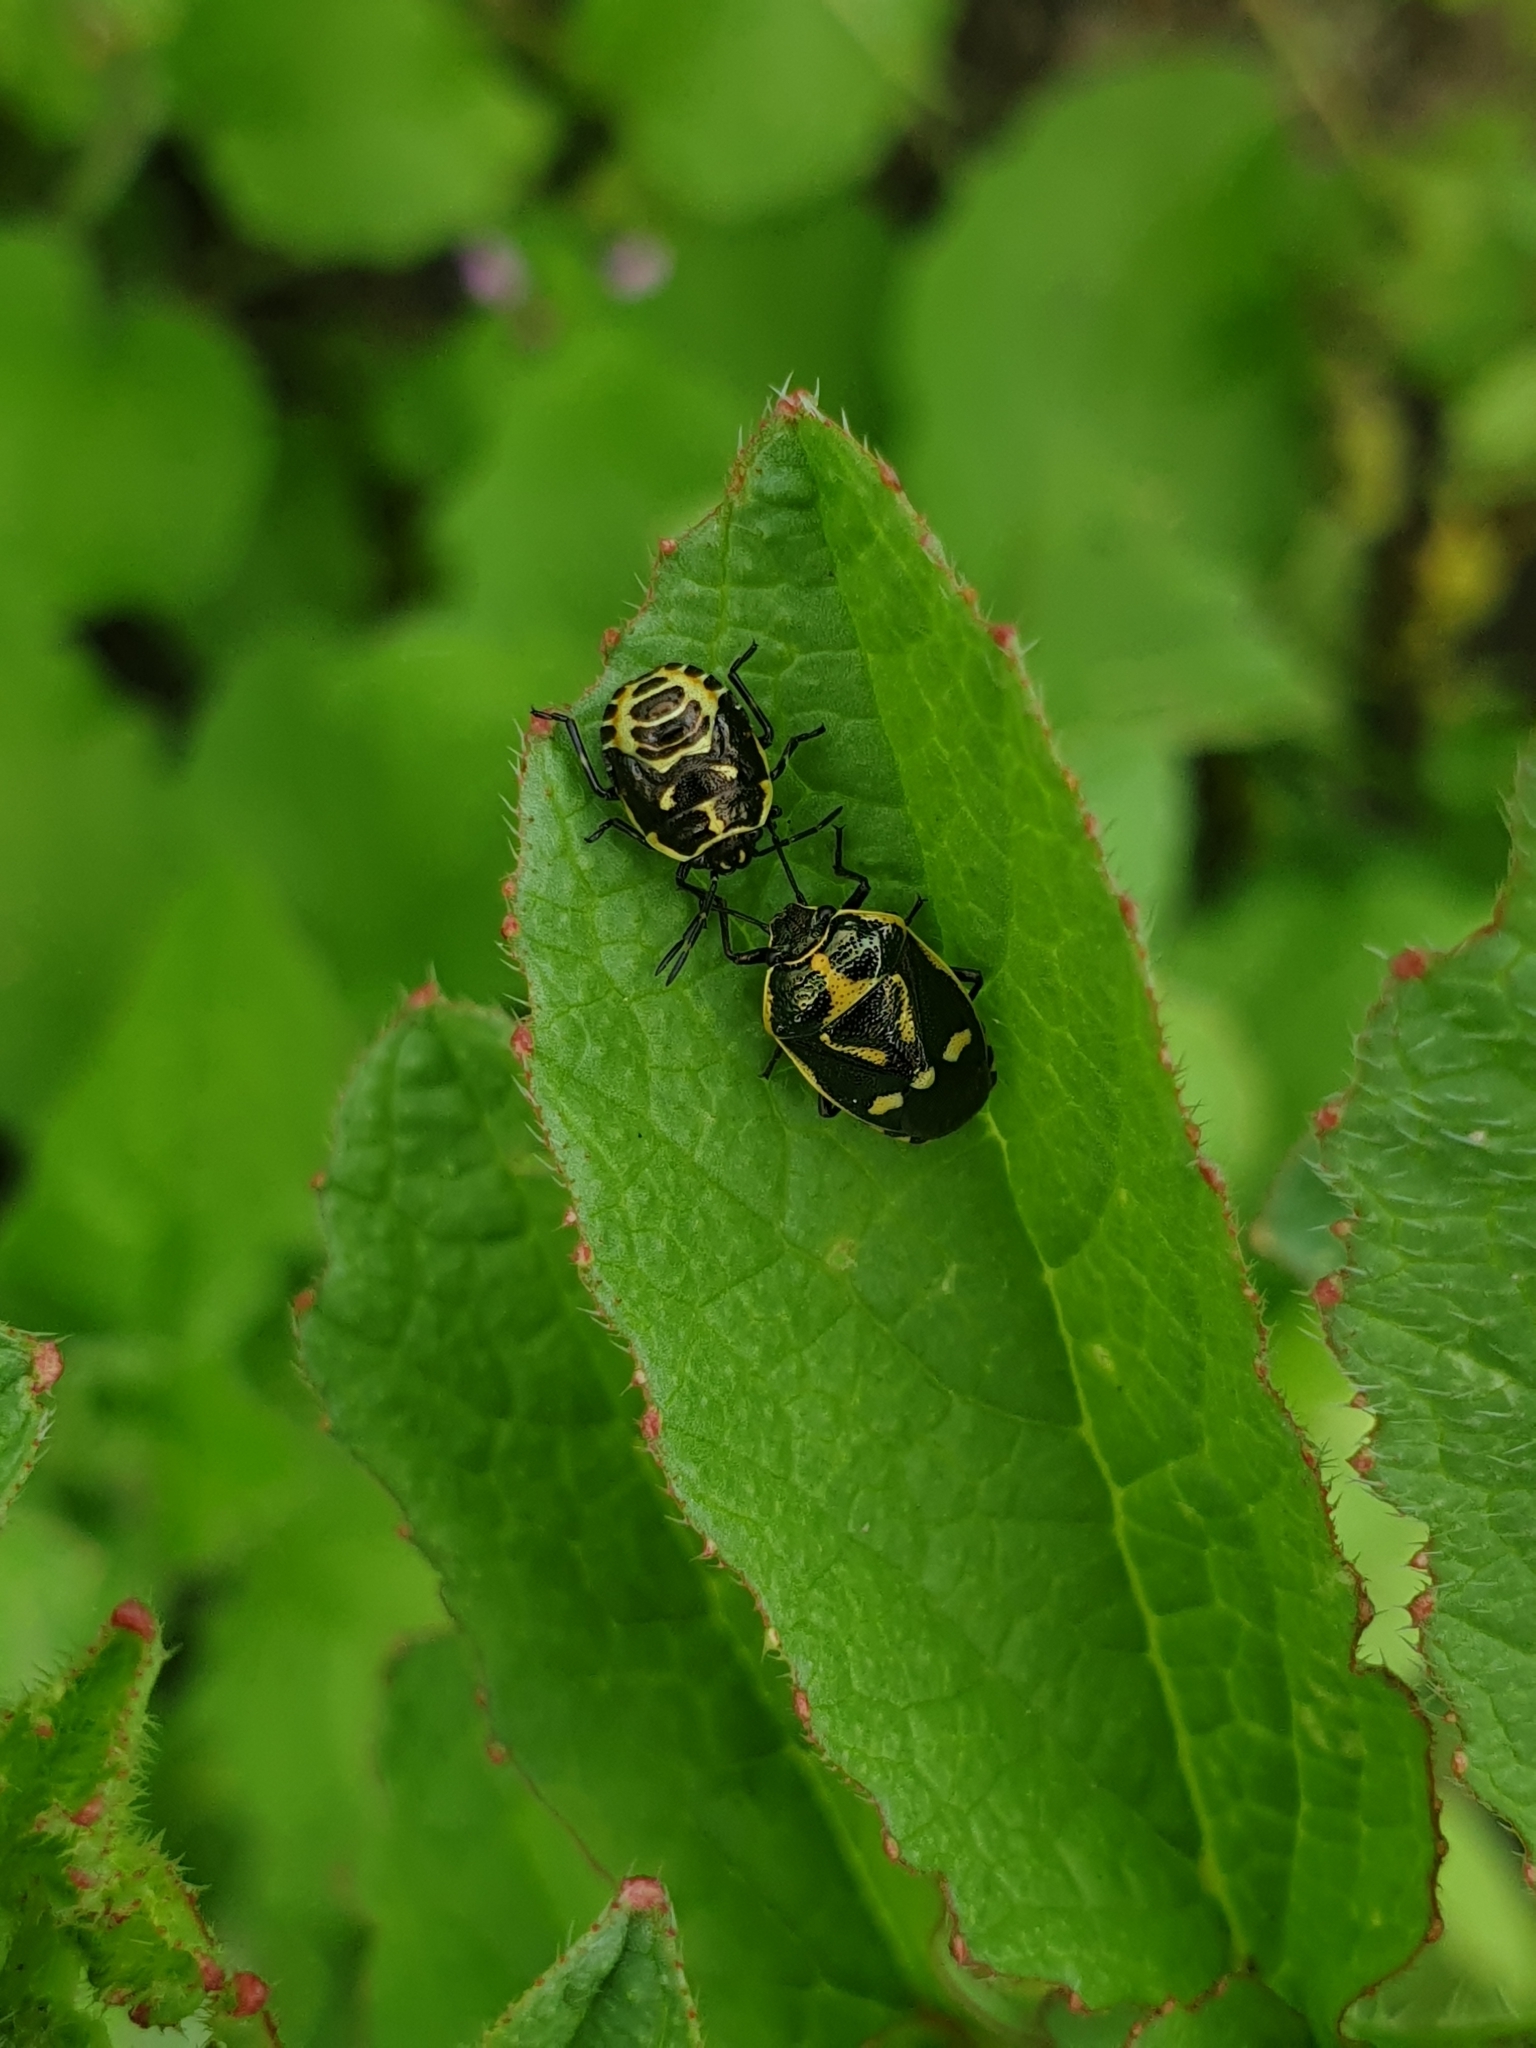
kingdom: Animalia
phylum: Arthropoda
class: Insecta
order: Hemiptera
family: Pentatomidae
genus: Eurydema
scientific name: Eurydema oleracea
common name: Cabbage bug
